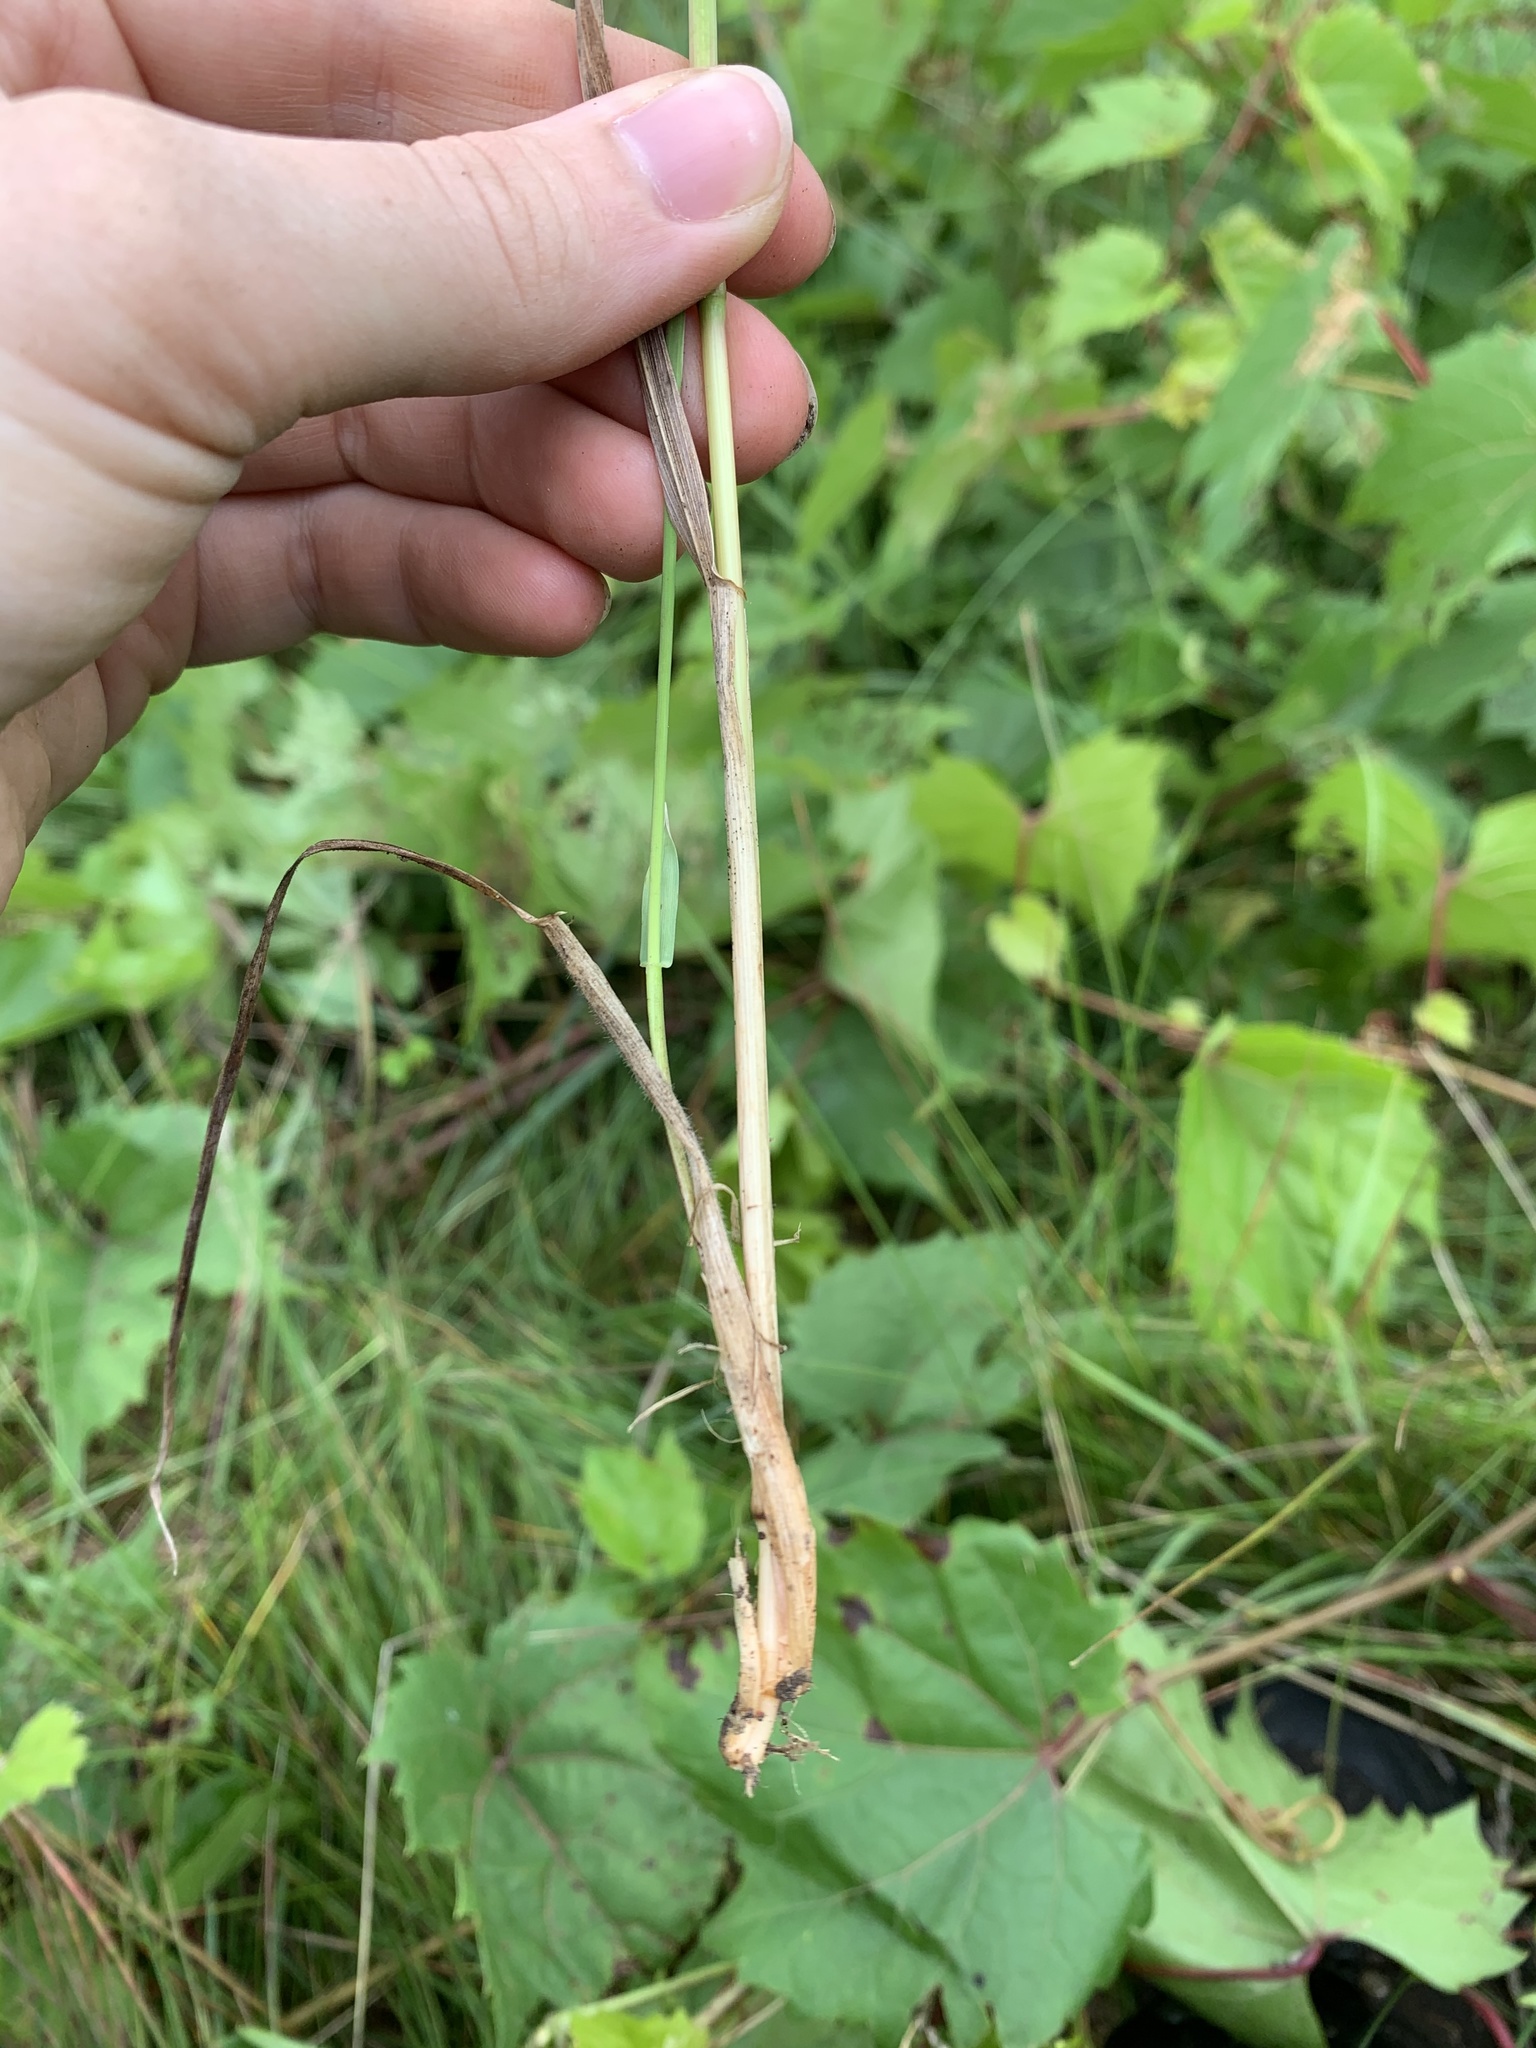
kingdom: Plantae
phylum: Tracheophyta
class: Liliopsida
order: Poales
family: Poaceae
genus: Elymus
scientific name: Elymus repens
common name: Quackgrass
